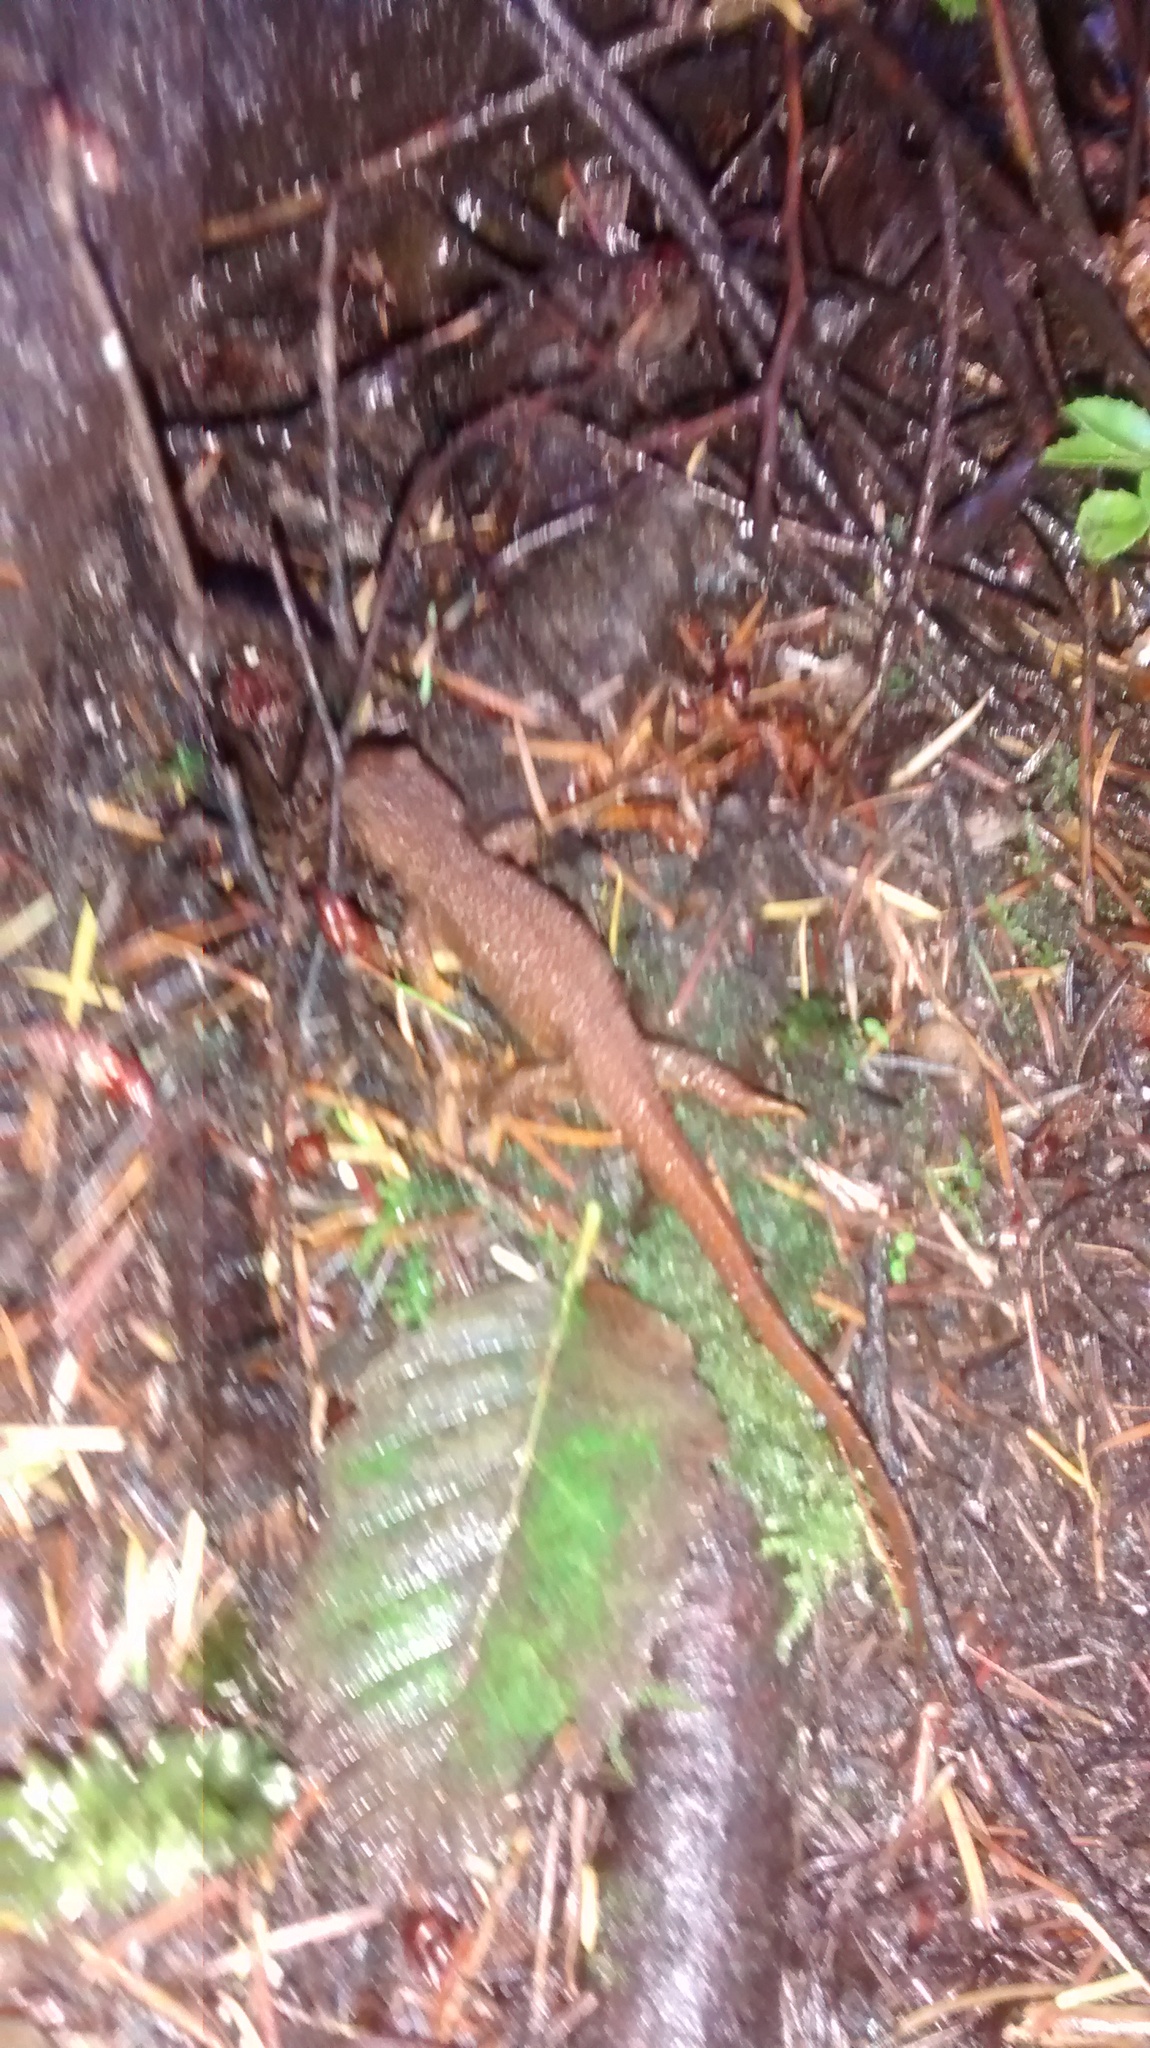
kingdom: Animalia
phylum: Chordata
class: Amphibia
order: Caudata
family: Salamandridae
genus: Taricha
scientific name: Taricha granulosa
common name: Roughskin newt
